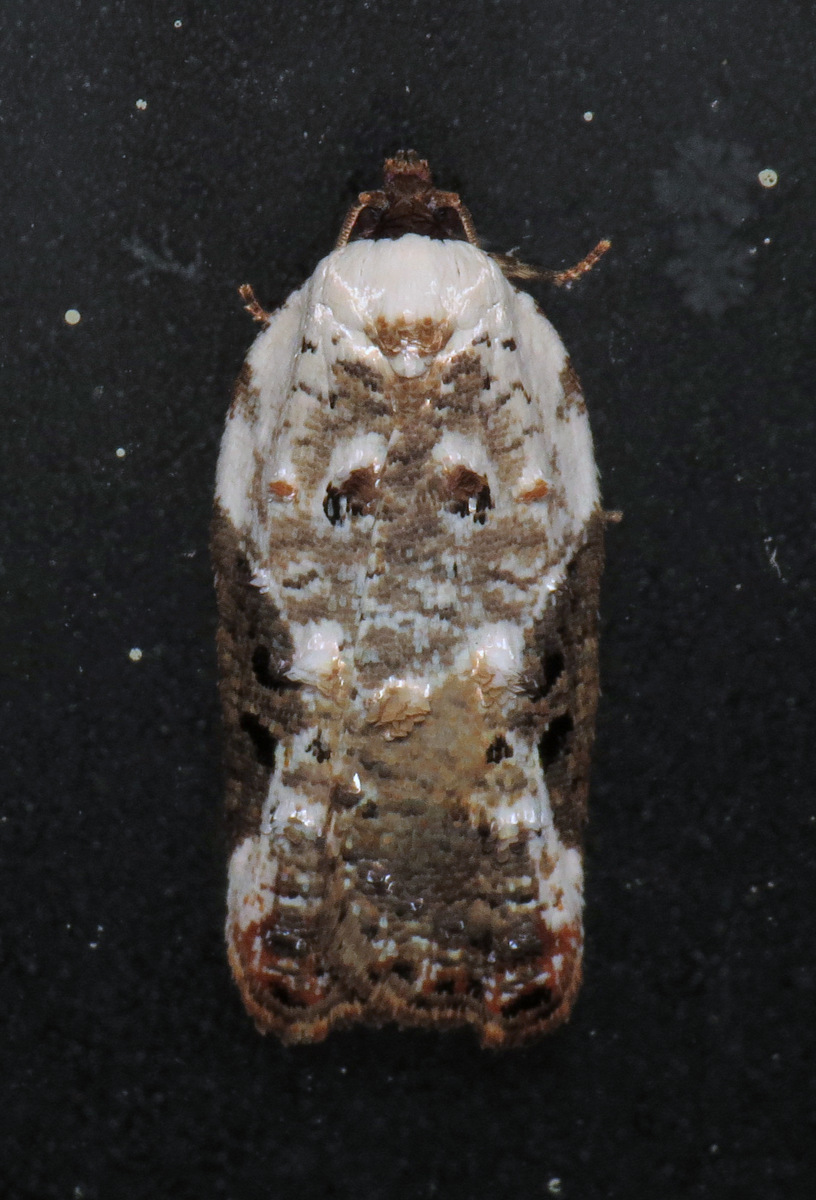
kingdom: Animalia
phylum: Arthropoda
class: Insecta
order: Lepidoptera
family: Tortricidae
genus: Acleris
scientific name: Acleris nivisellana
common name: Snowy-shouldered acleris moth
